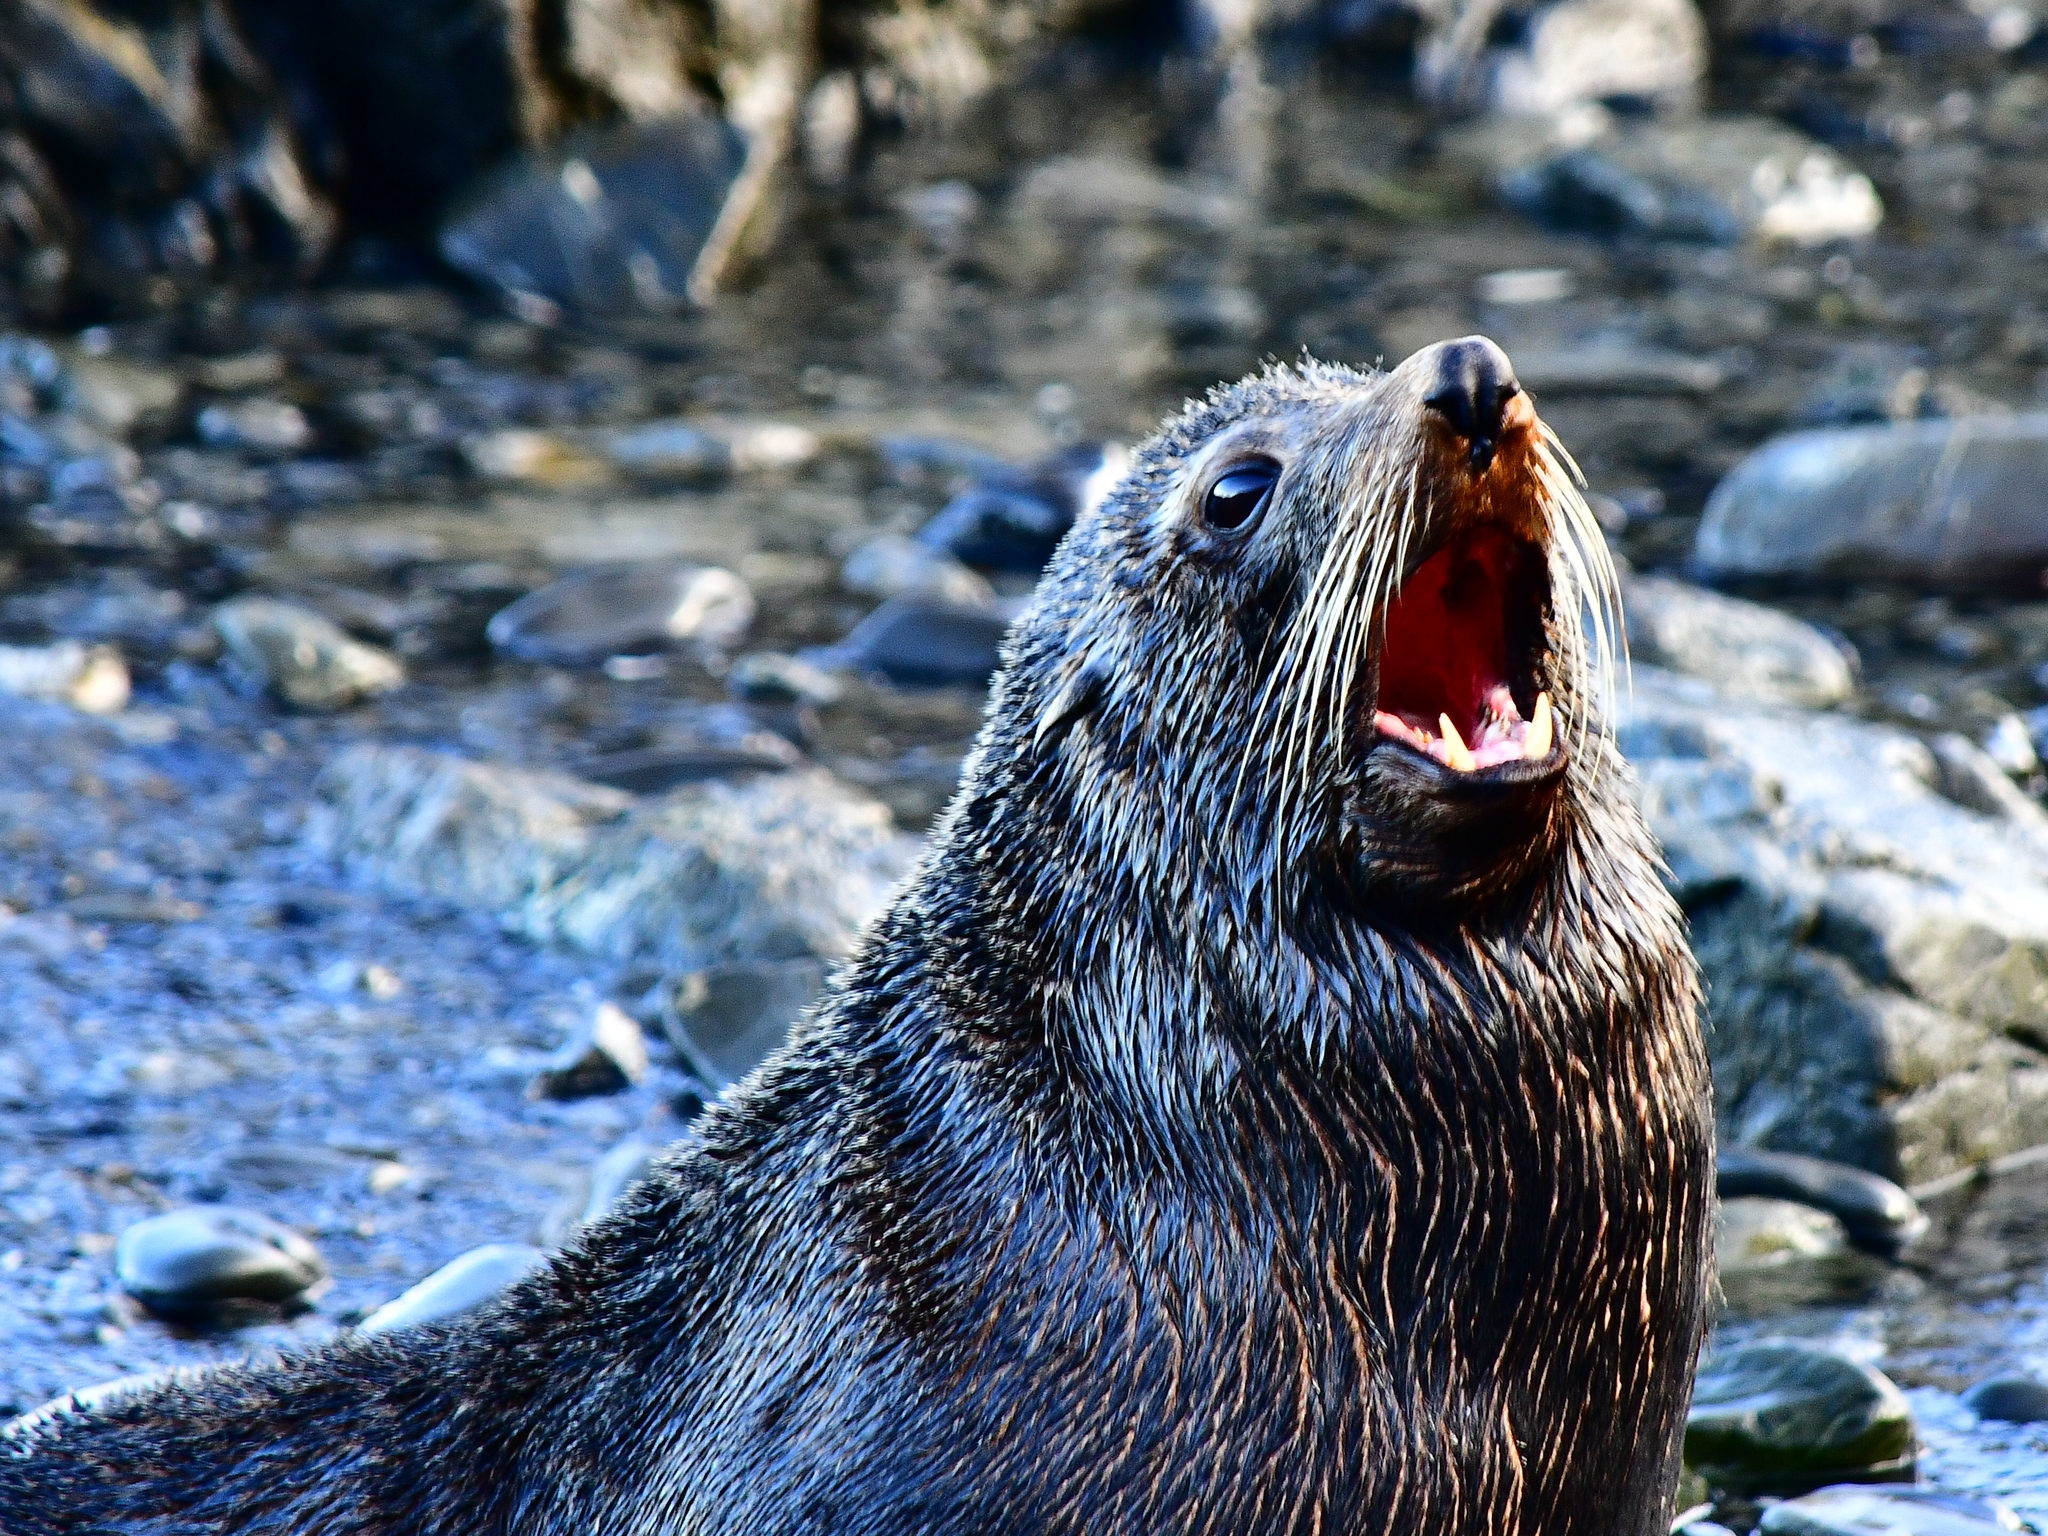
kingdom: Animalia
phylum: Chordata
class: Mammalia
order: Carnivora
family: Otariidae
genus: Arctocephalus
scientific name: Arctocephalus forsteri
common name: New zealand fur seal
